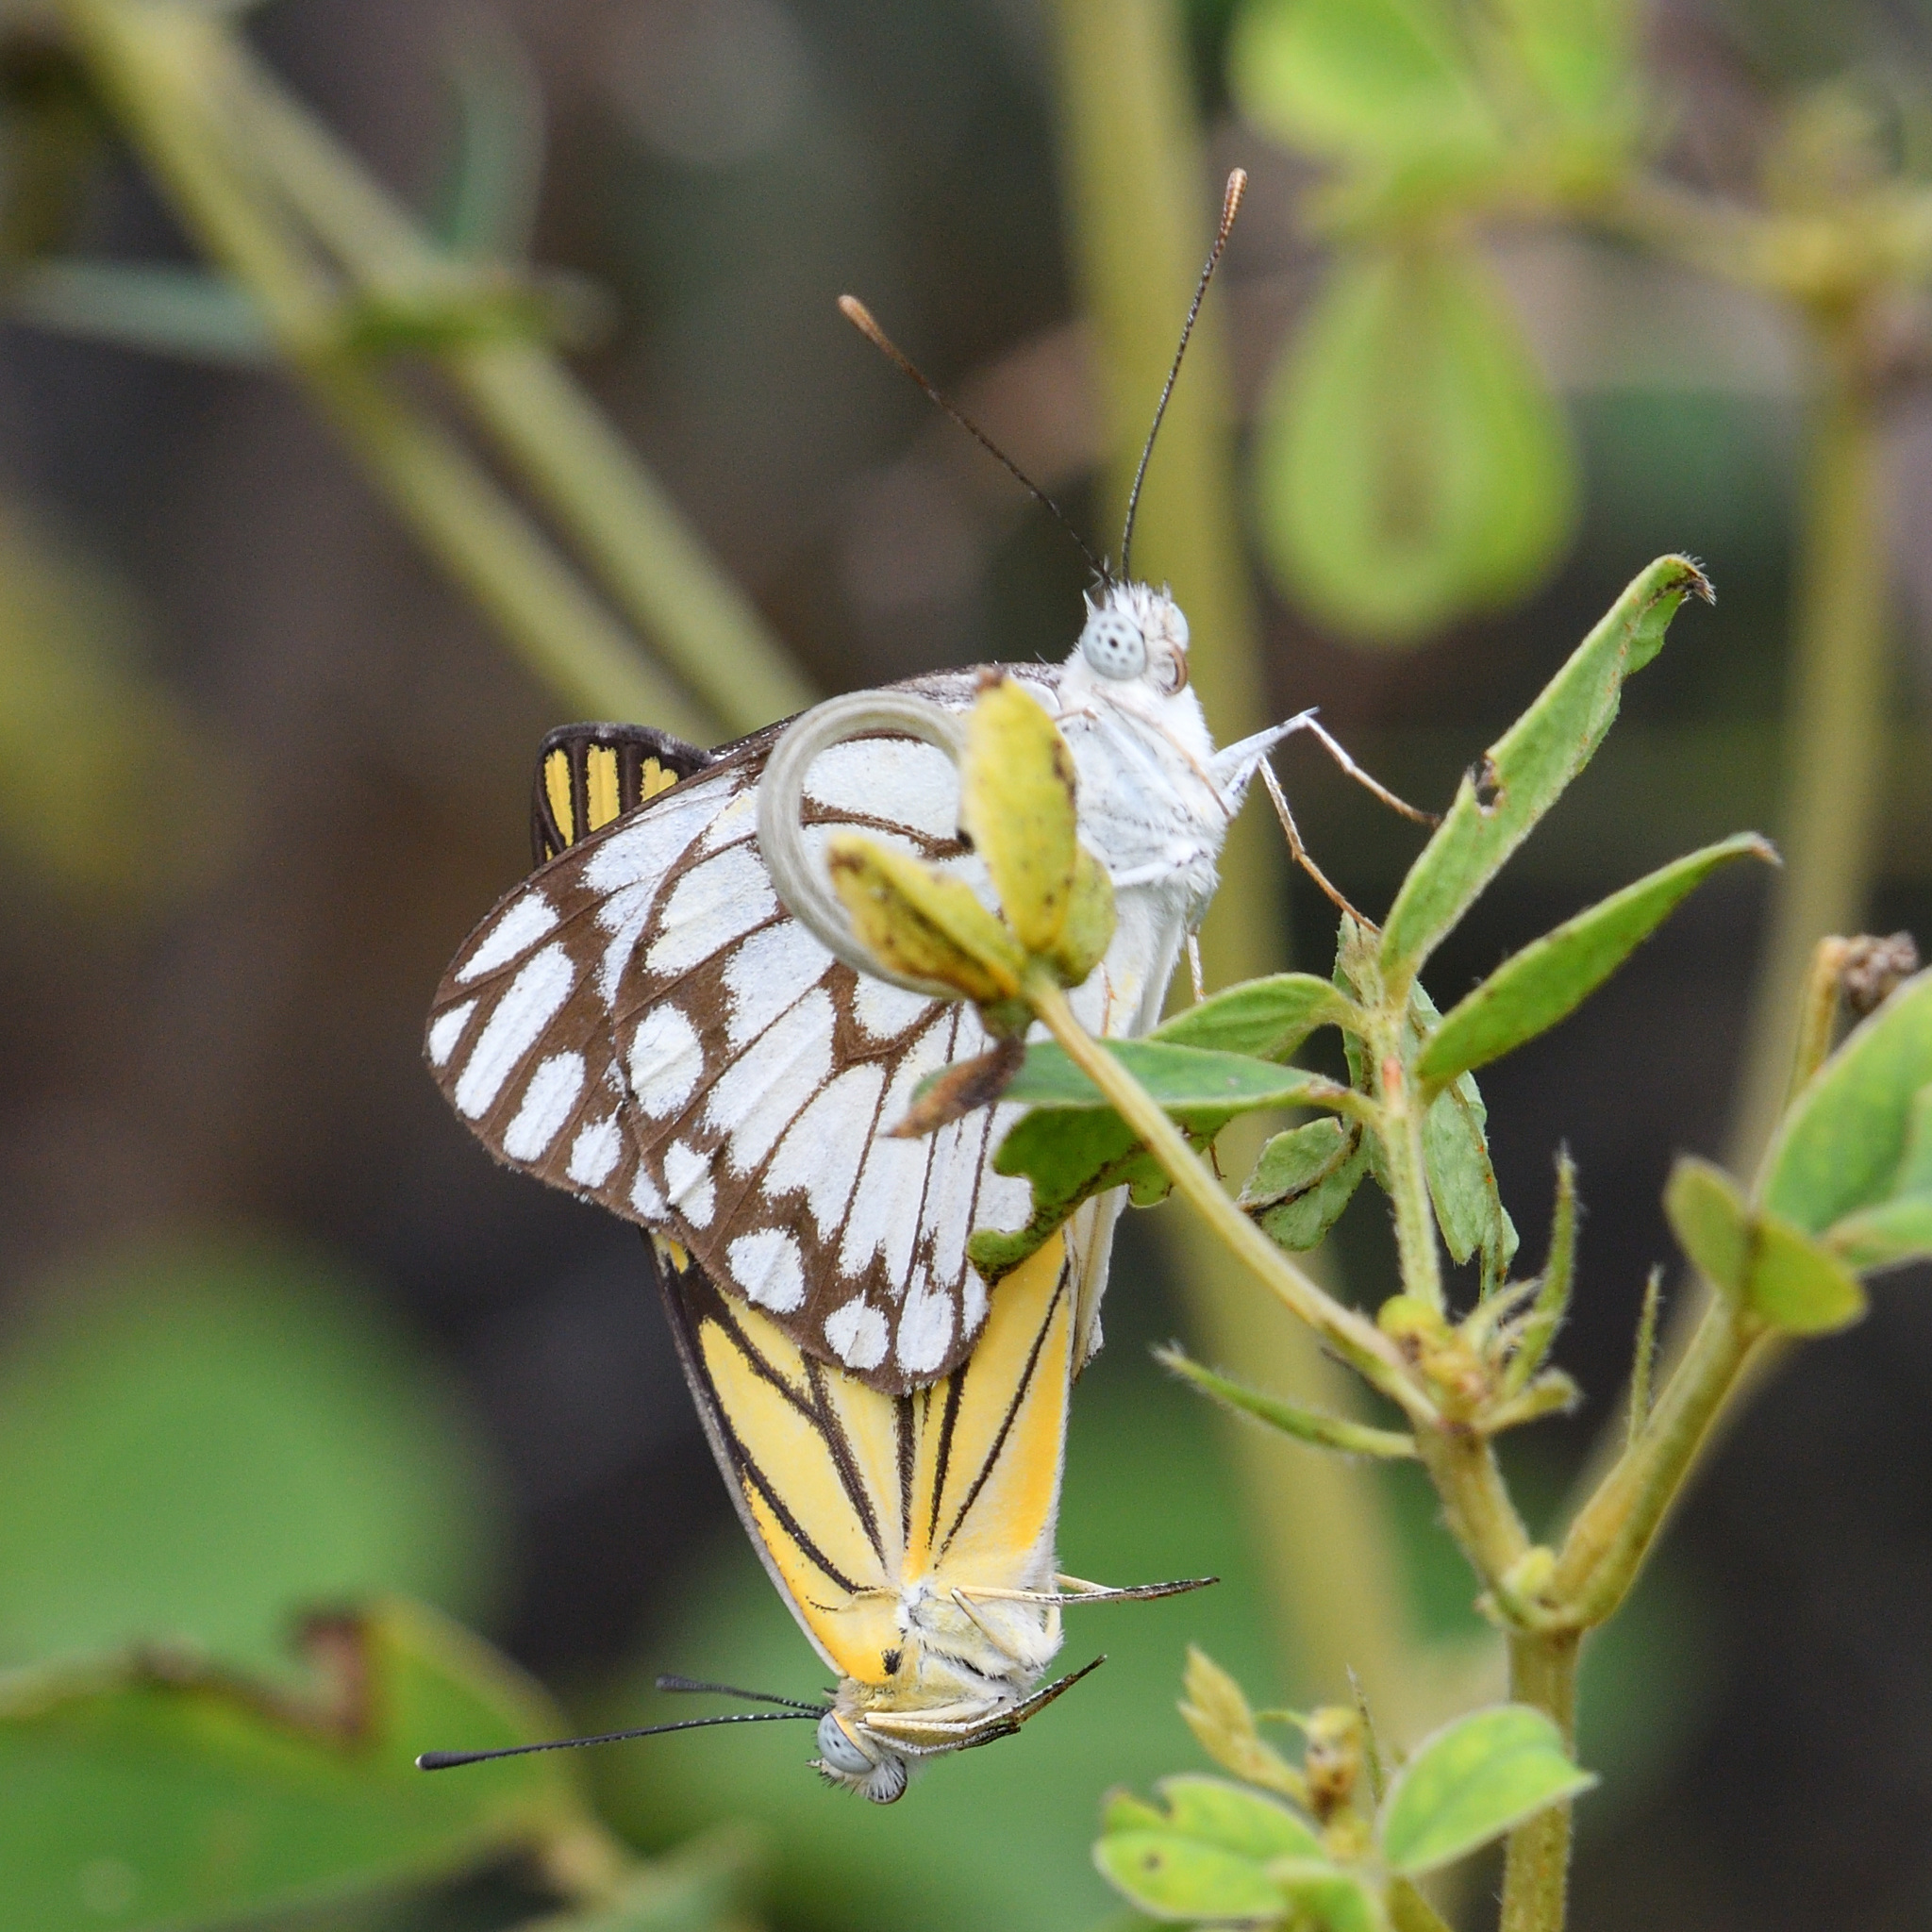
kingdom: Animalia
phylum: Arthropoda
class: Insecta
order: Lepidoptera
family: Pieridae
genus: Belenois
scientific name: Belenois aurota
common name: Brown-veined white
